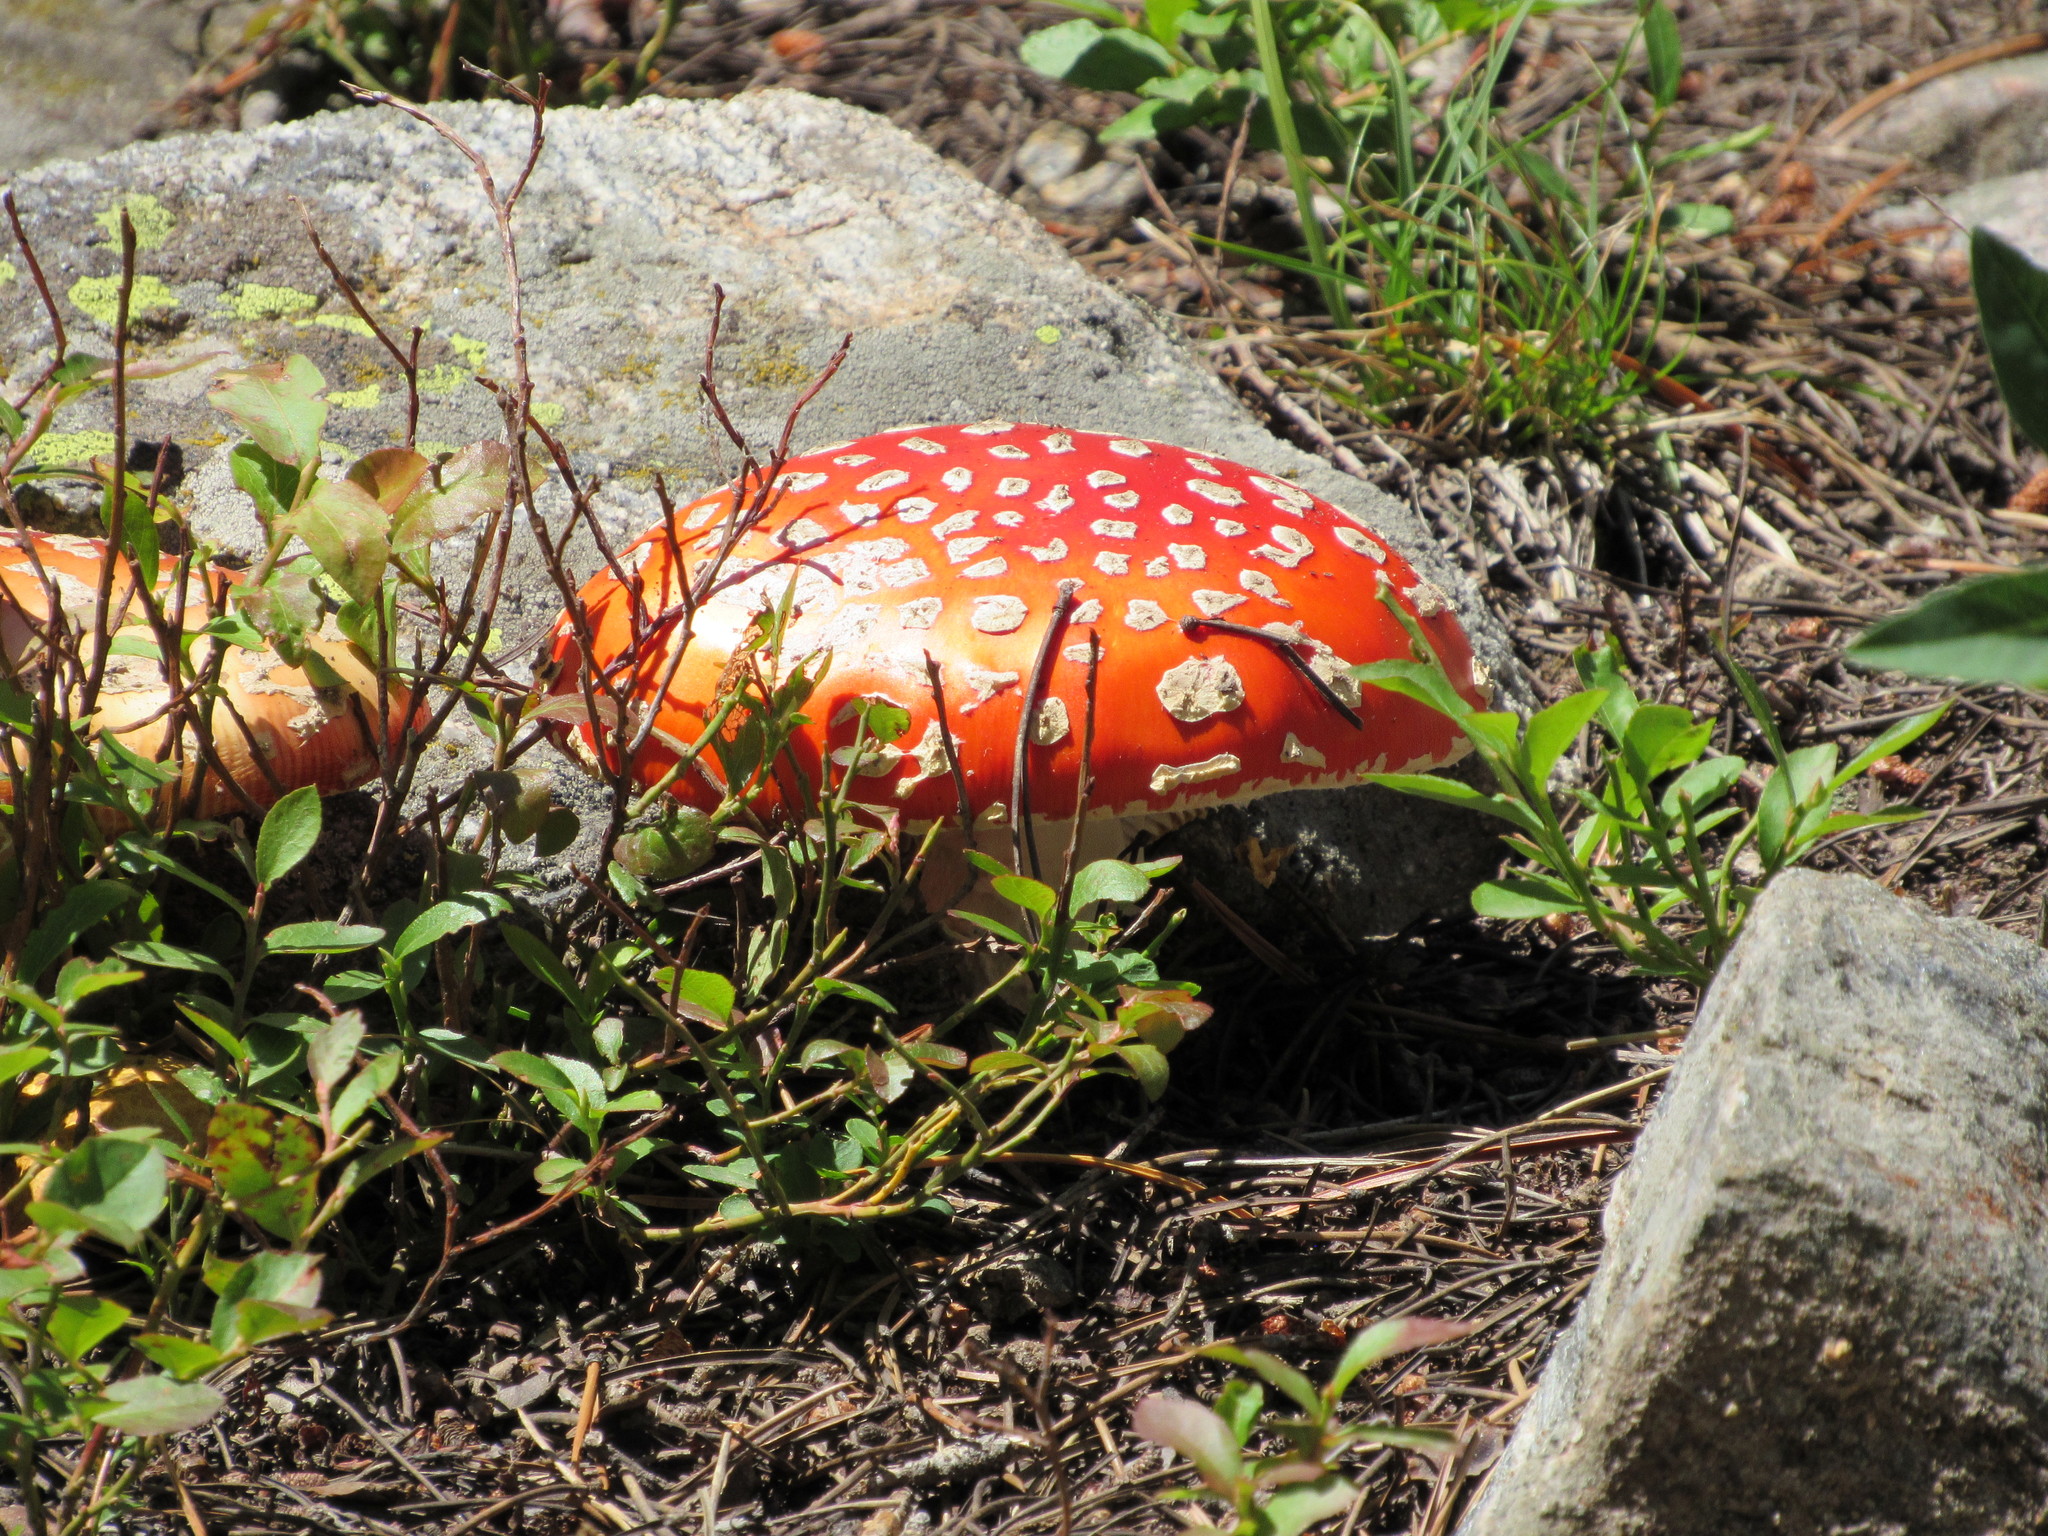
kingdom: Fungi
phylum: Basidiomycota
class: Agaricomycetes
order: Agaricales
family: Amanitaceae
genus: Amanita
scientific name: Amanita muscaria
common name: Fly agaric
